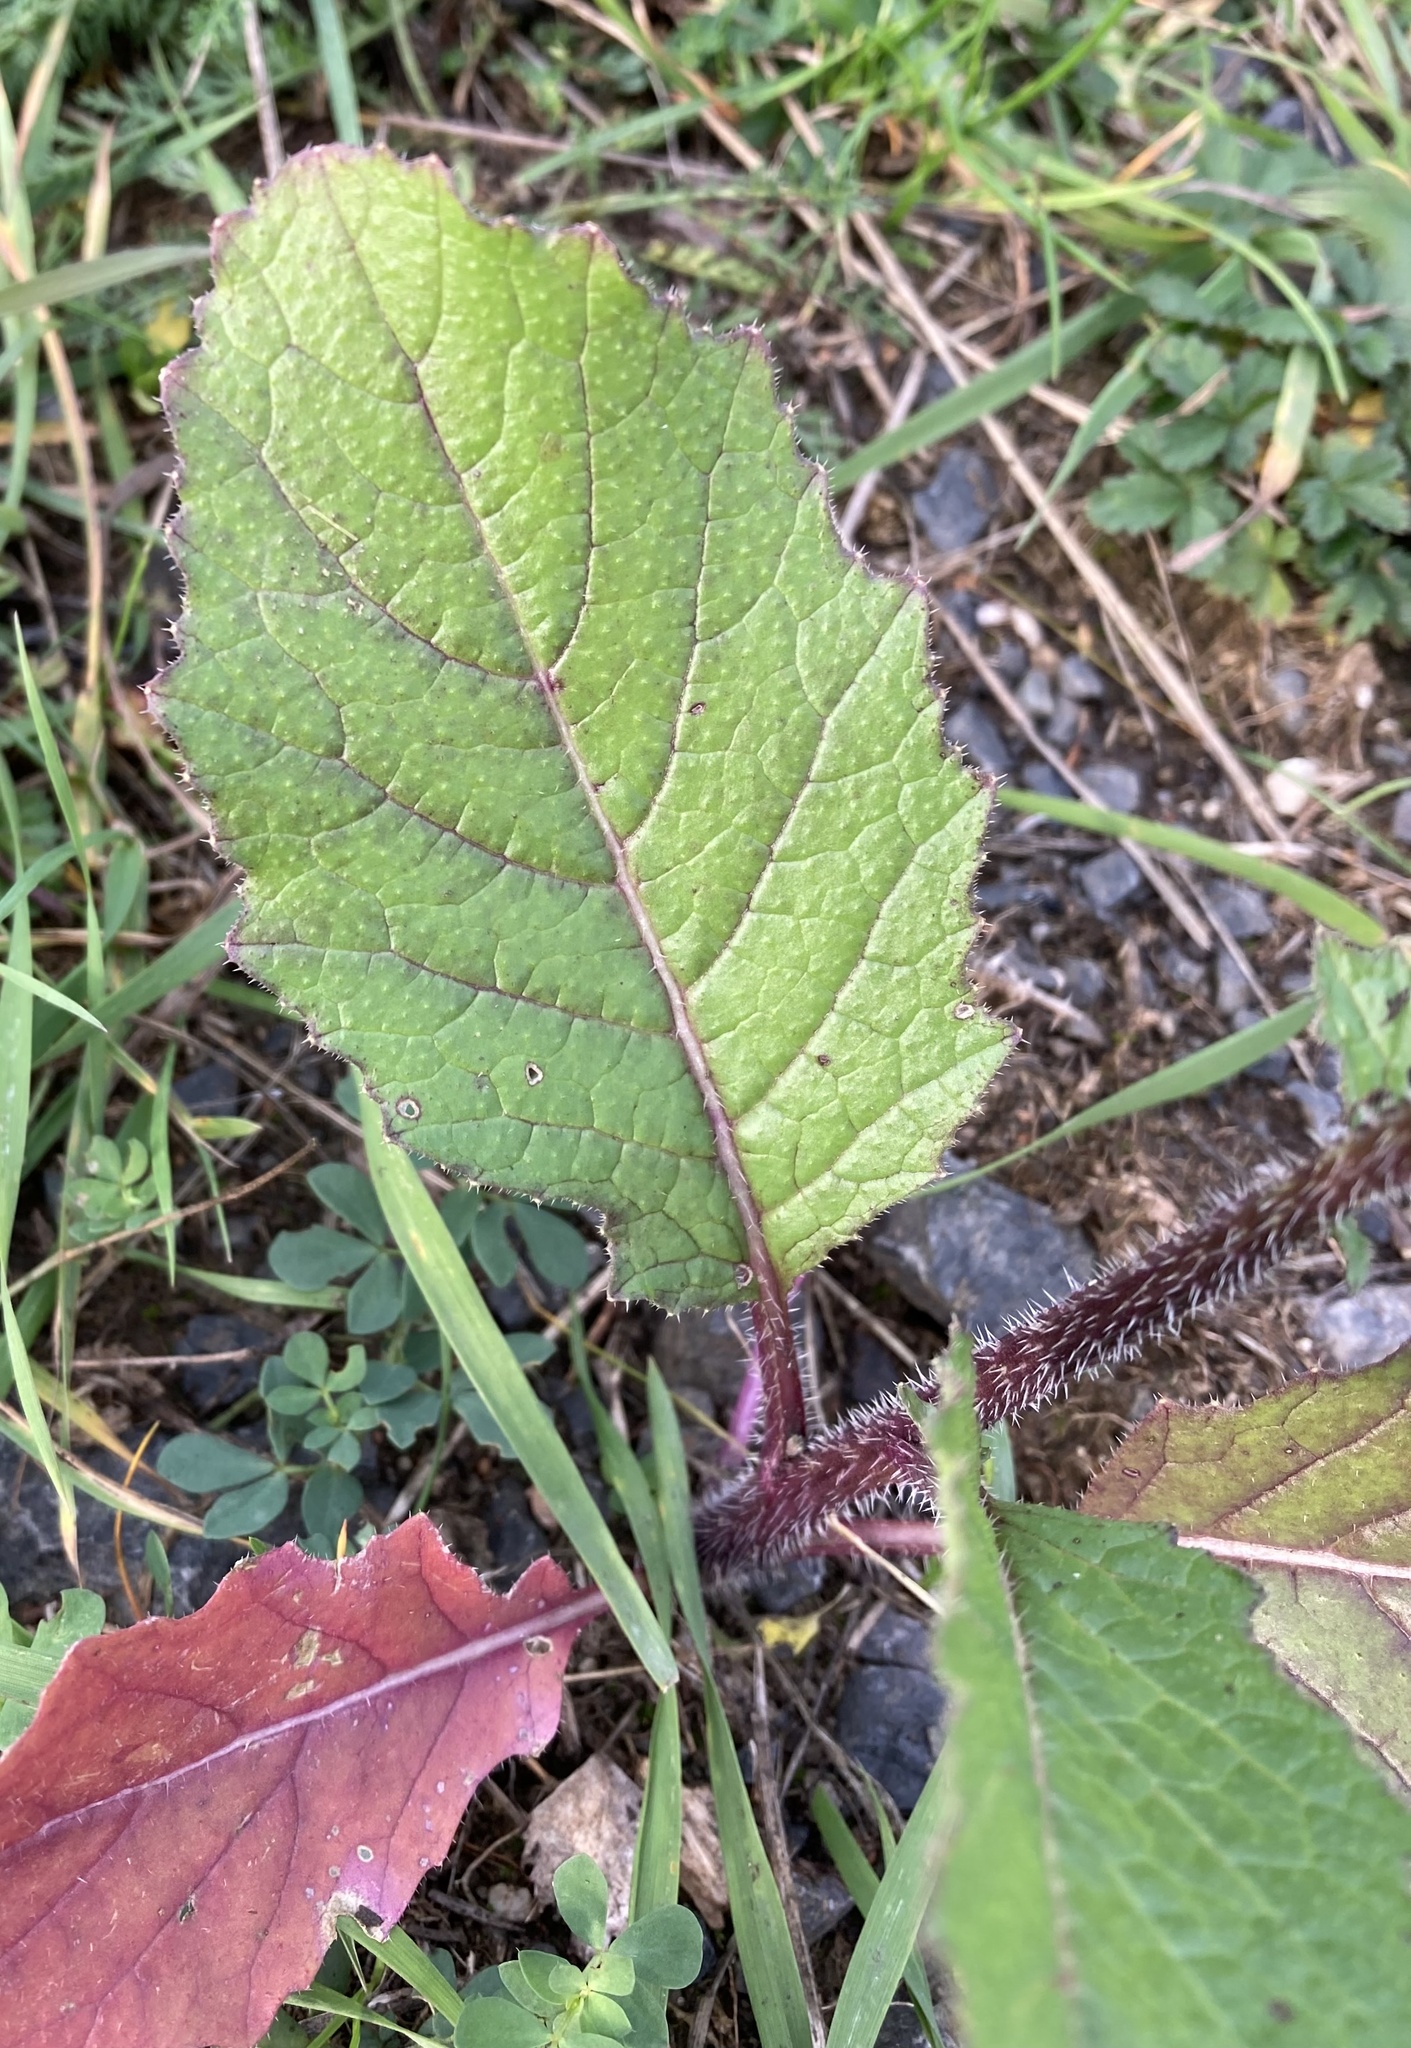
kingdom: Plantae
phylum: Tracheophyta
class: Magnoliopsida
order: Brassicales
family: Brassicaceae
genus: Sinapis
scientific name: Sinapis arvensis
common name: Charlock
